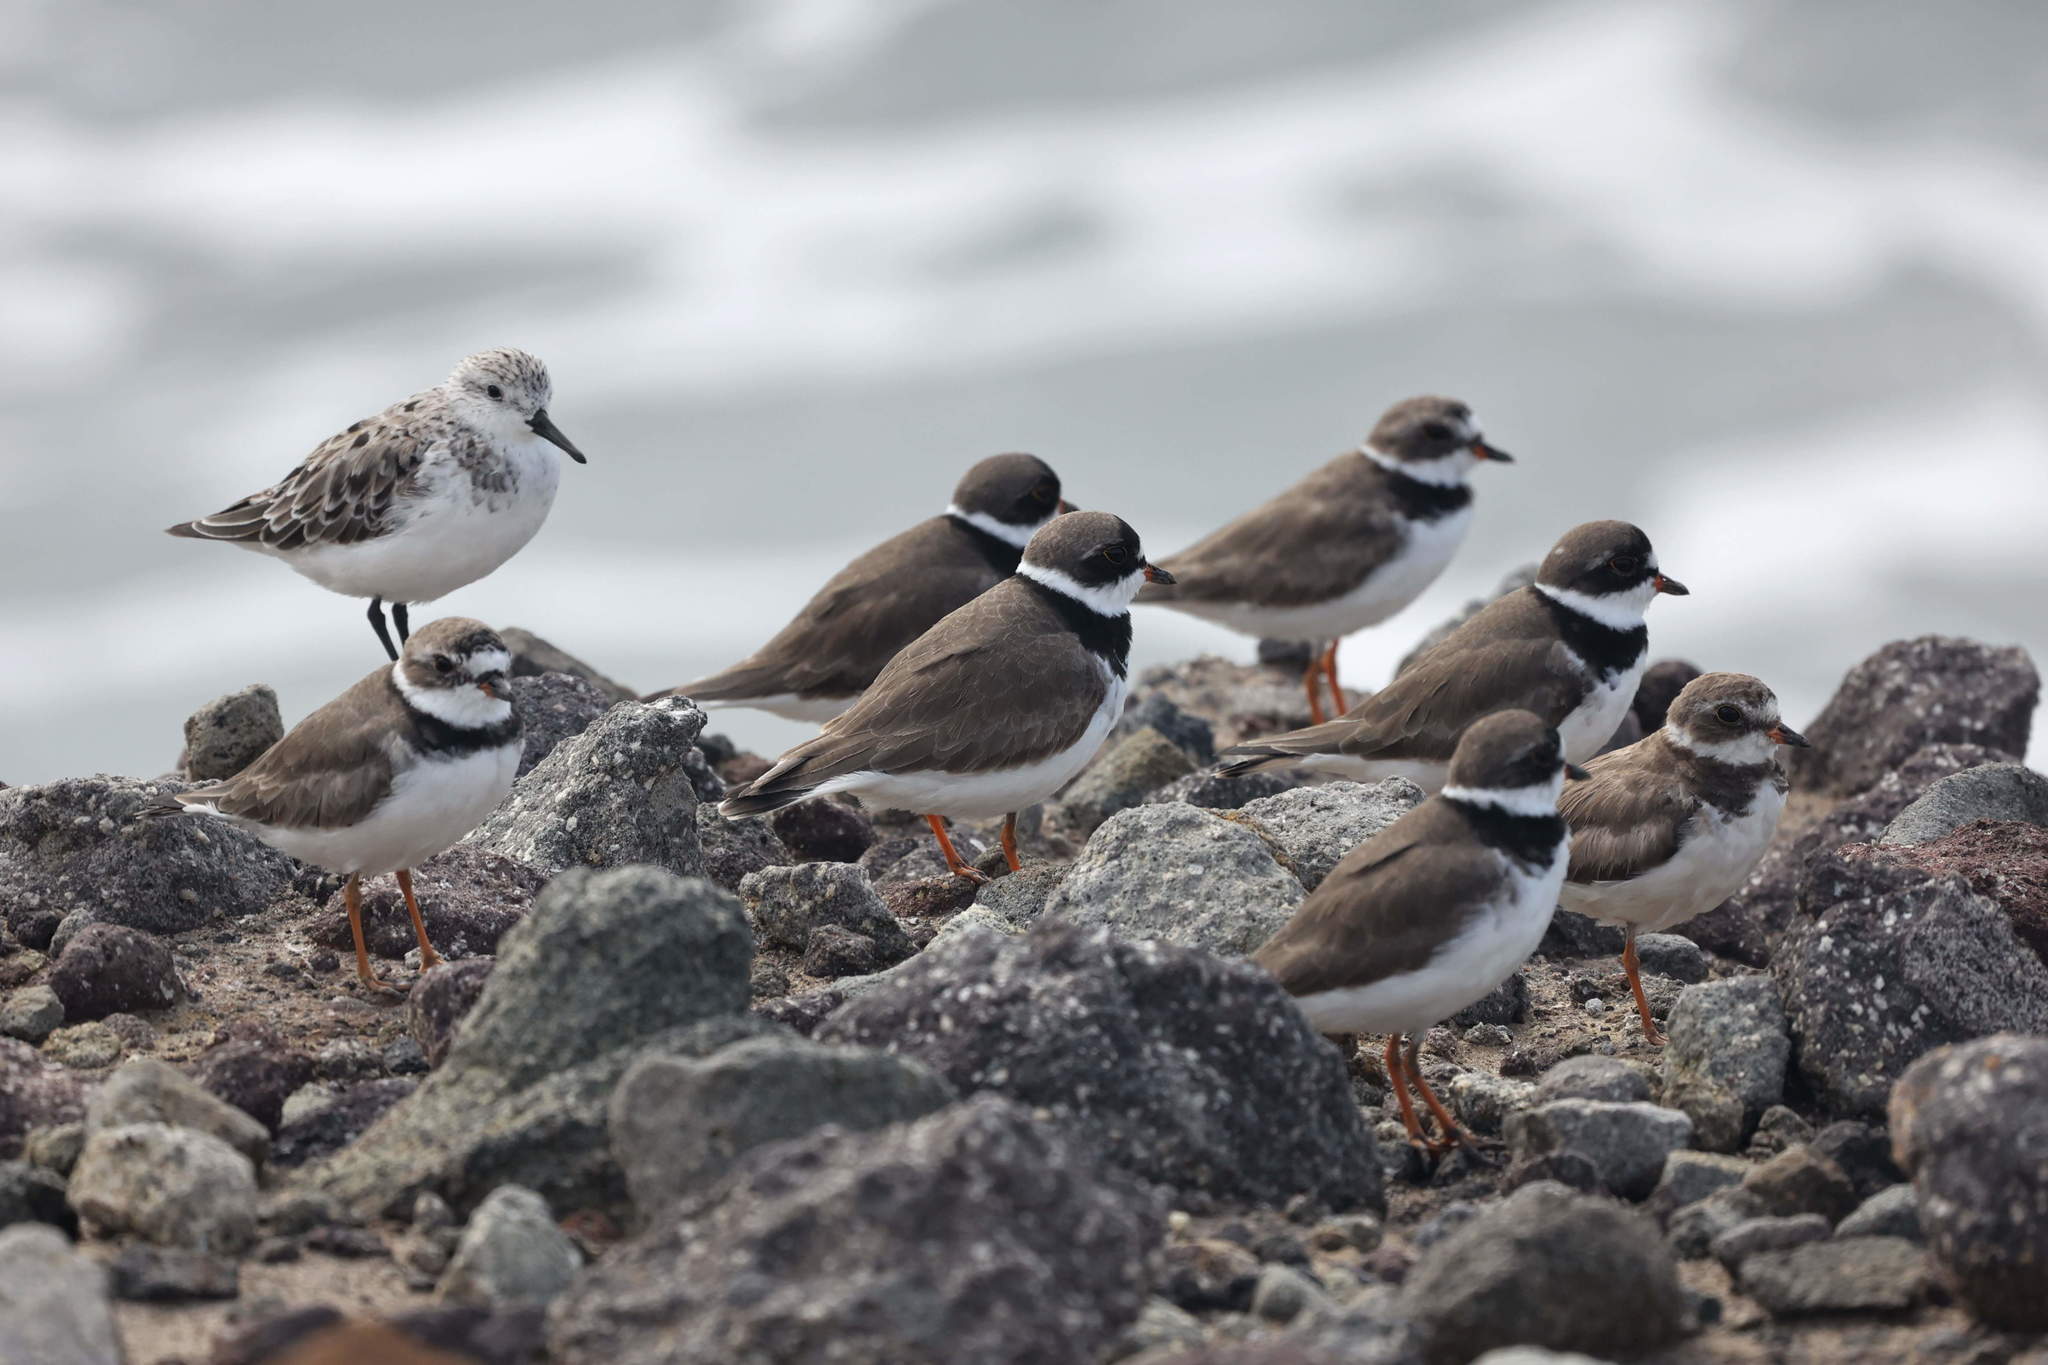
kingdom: Animalia
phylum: Chordata
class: Aves
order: Charadriiformes
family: Charadriidae
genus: Charadrius
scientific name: Charadrius semipalmatus
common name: Semipalmated plover
